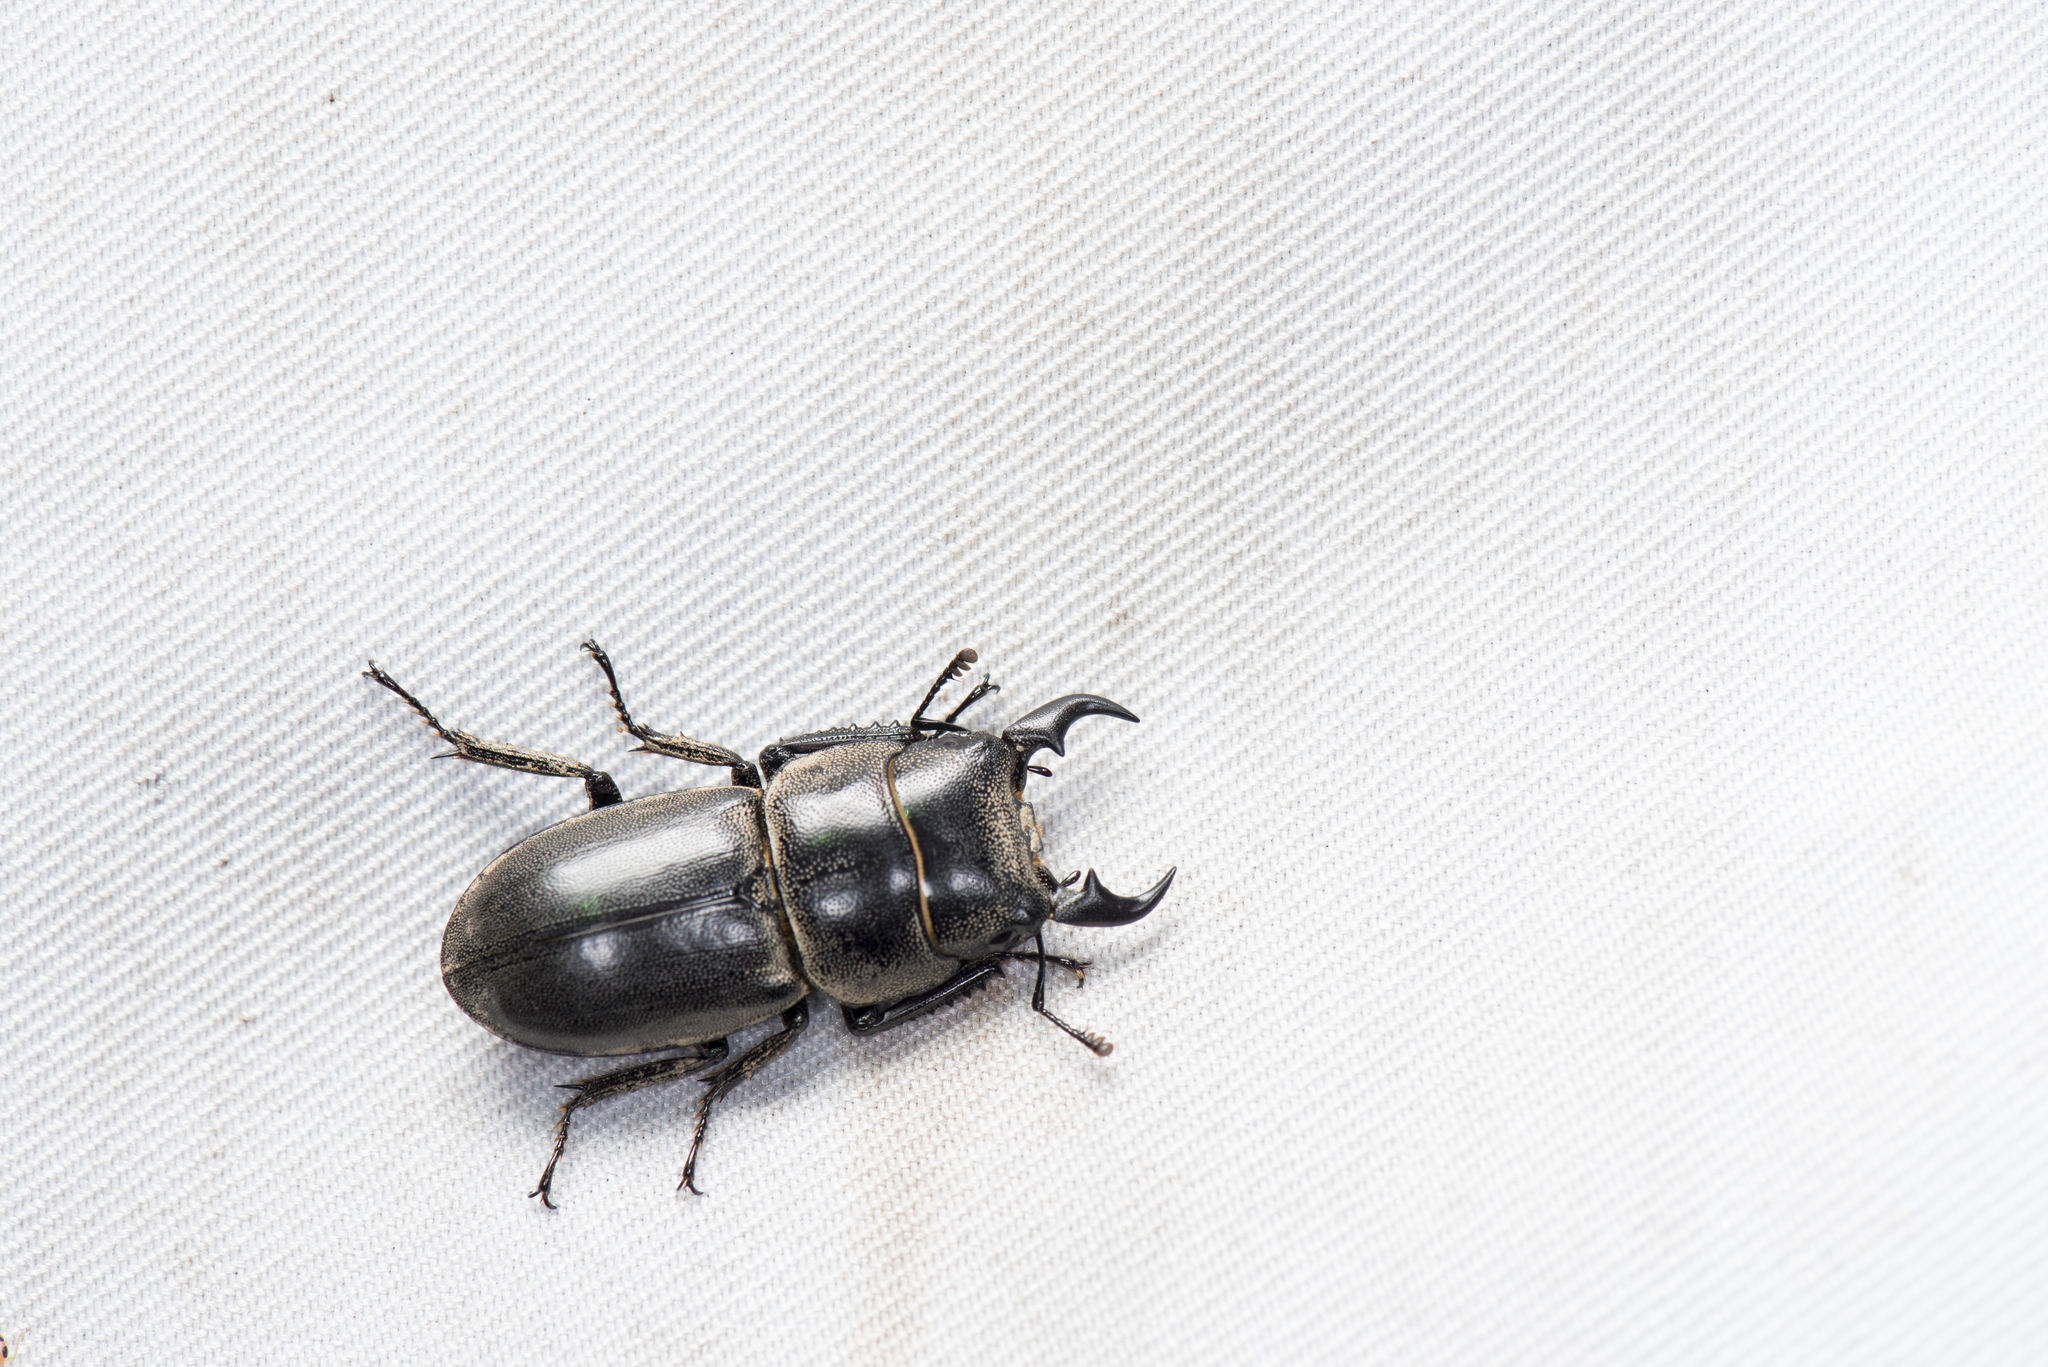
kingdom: Animalia
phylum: Arthropoda
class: Insecta
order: Coleoptera
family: Lucanidae
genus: Serrognathus
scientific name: Serrognathus kyanrauensis
